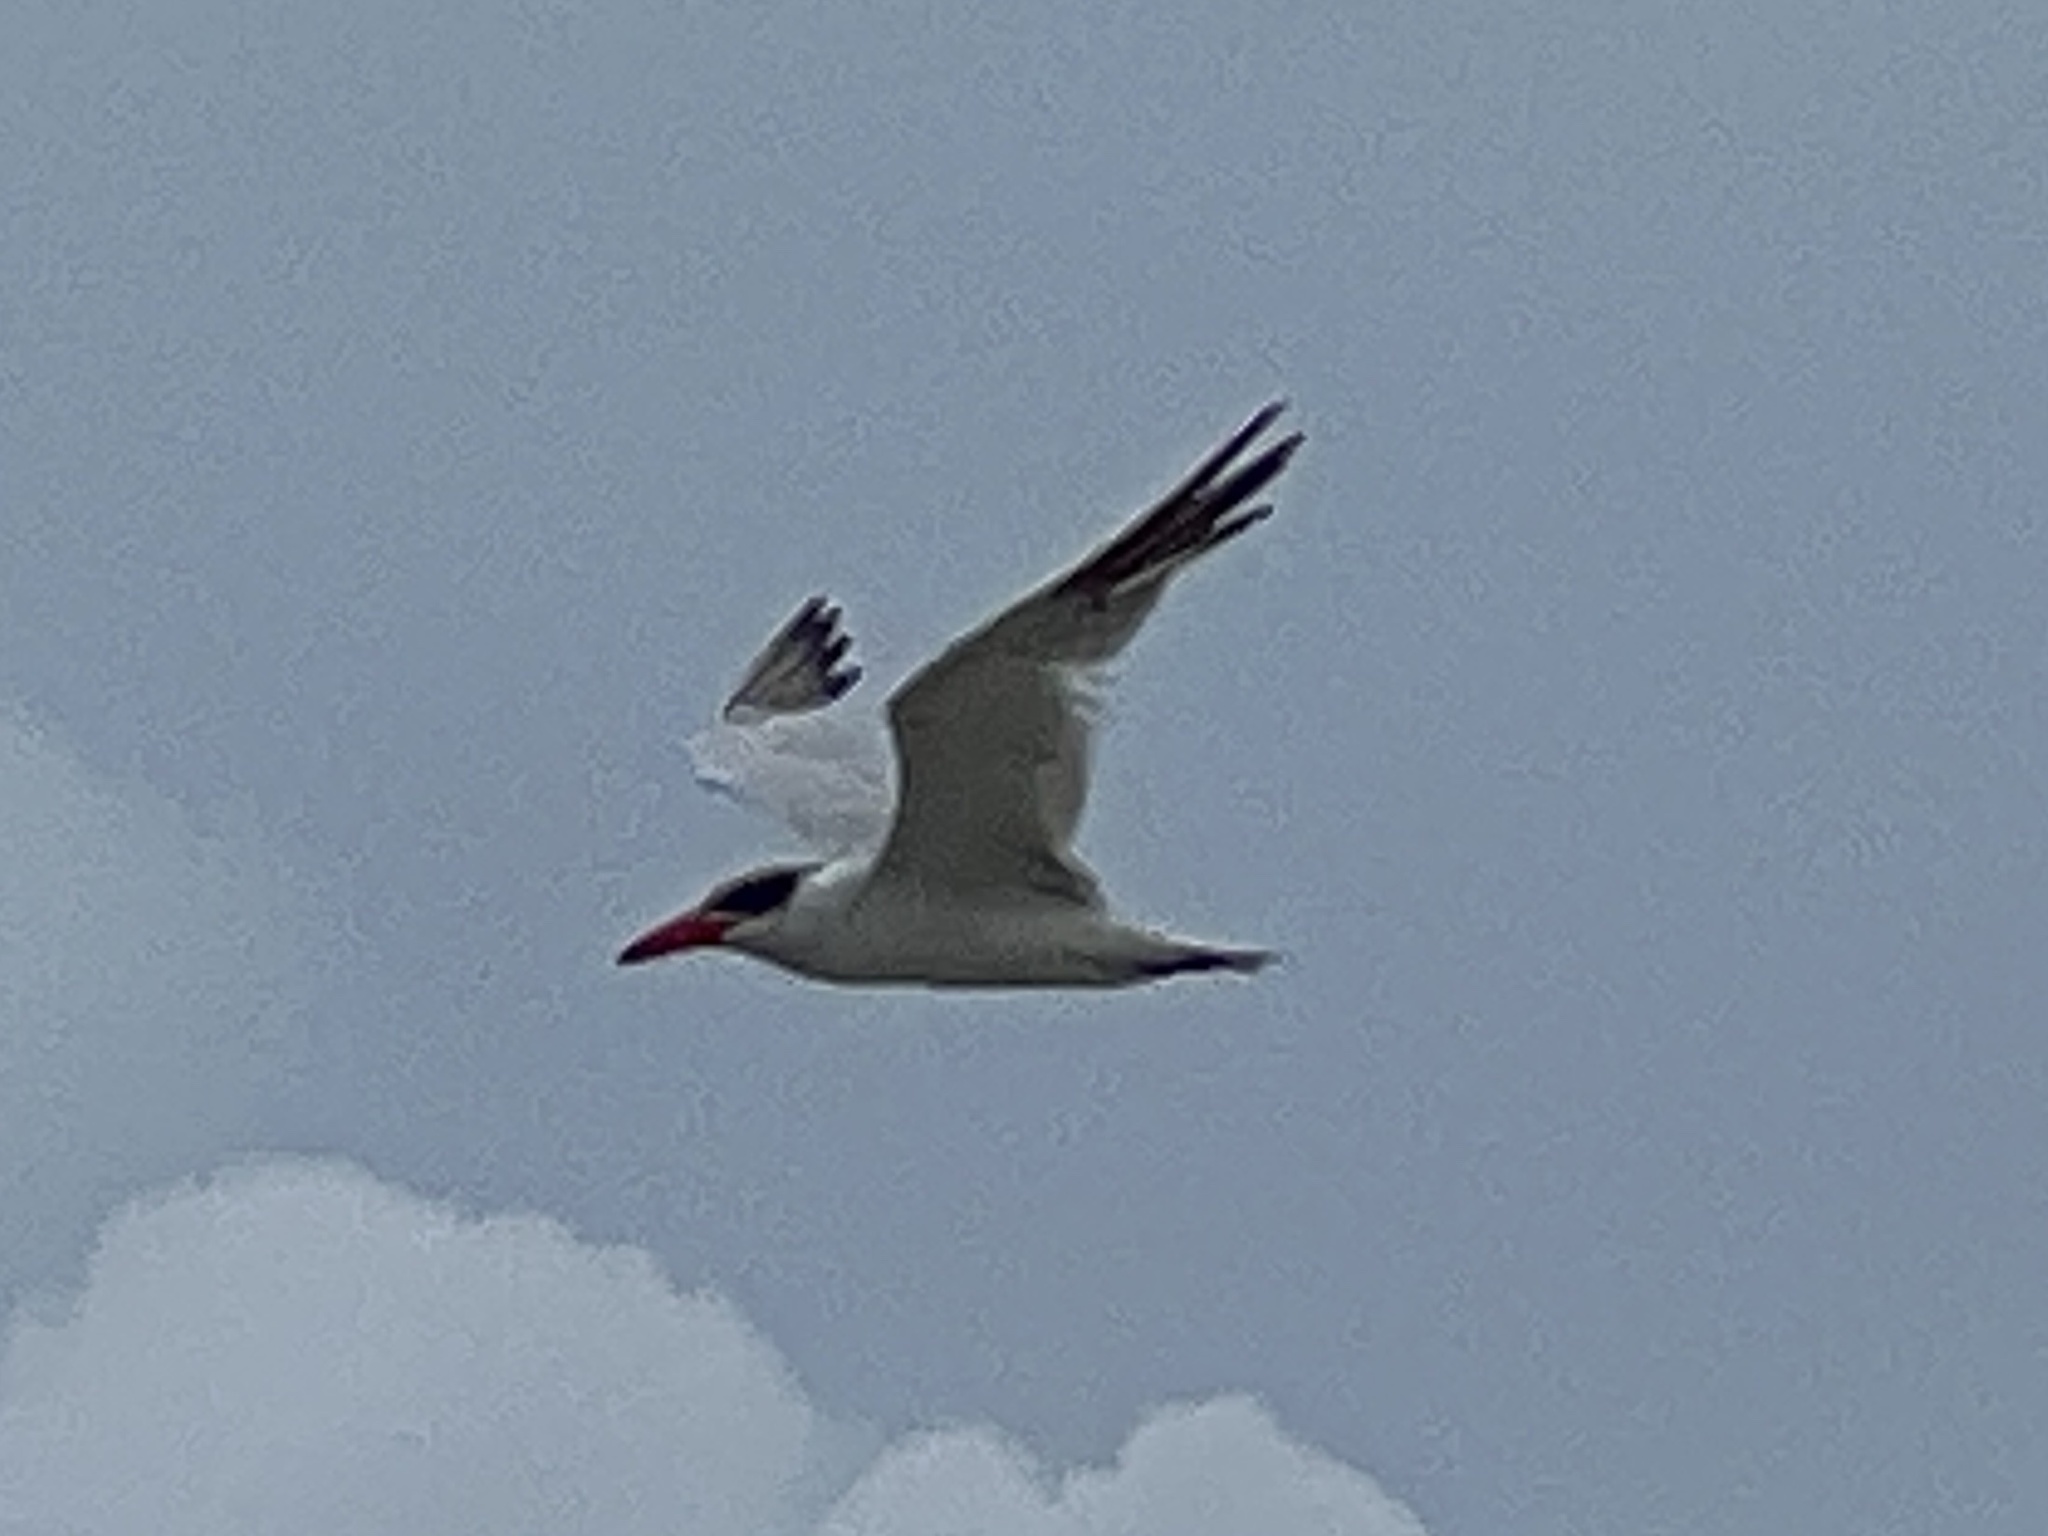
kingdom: Animalia
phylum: Chordata
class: Aves
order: Charadriiformes
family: Laridae
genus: Hydroprogne
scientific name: Hydroprogne caspia
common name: Caspian tern
